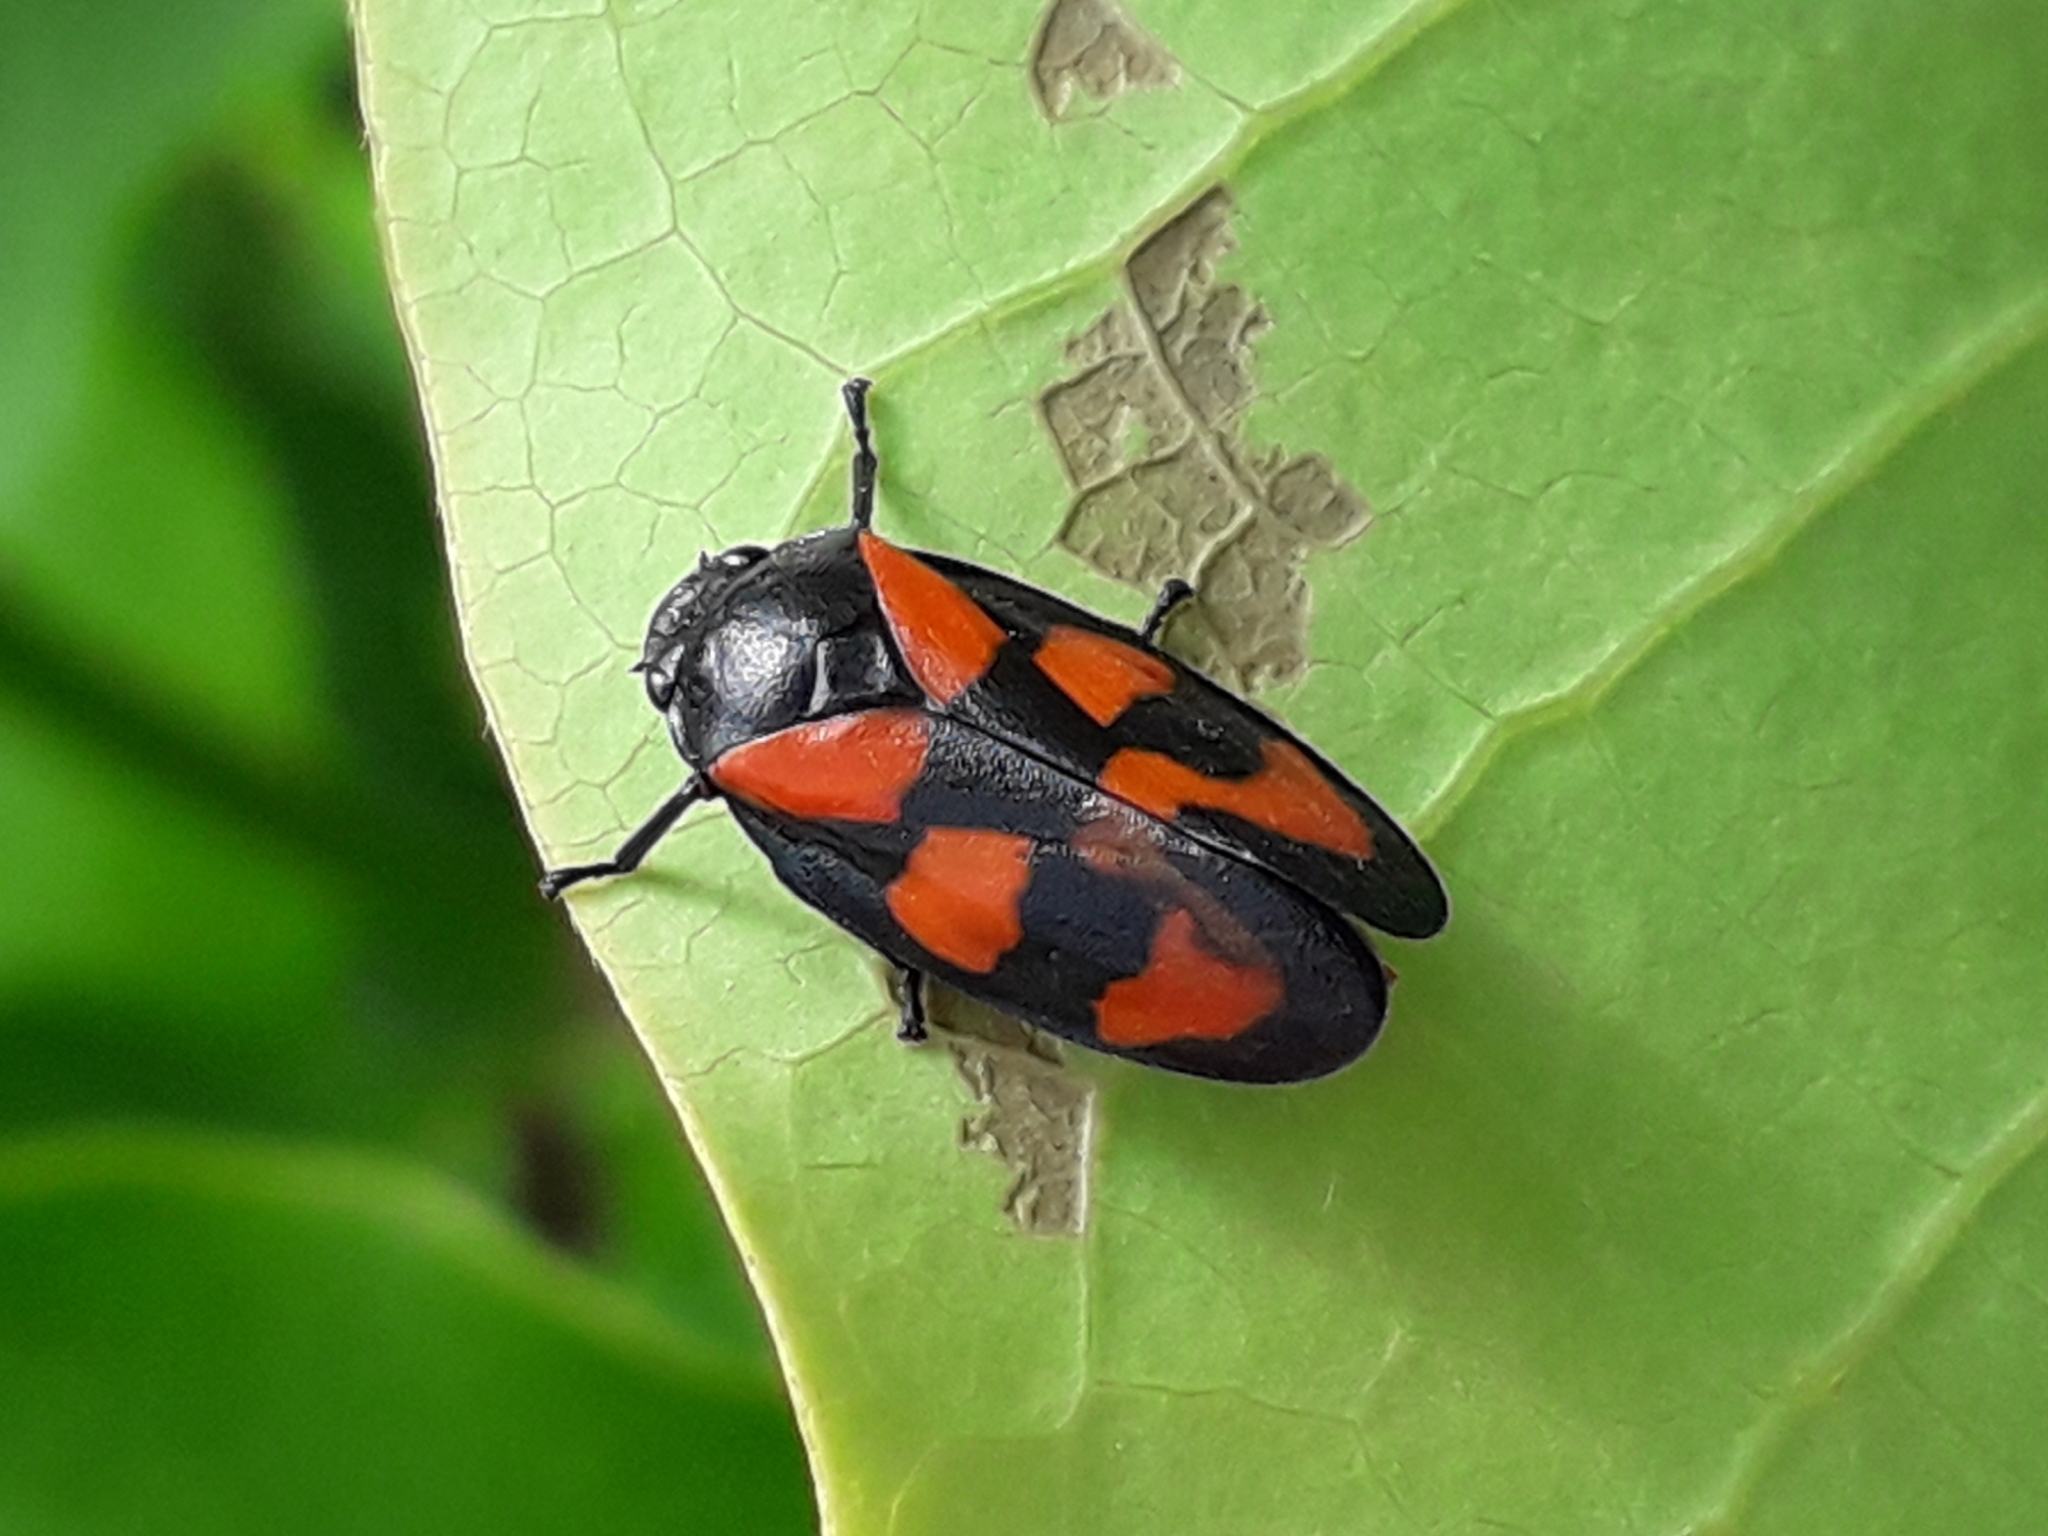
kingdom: Animalia
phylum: Arthropoda
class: Insecta
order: Hemiptera
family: Cercopidae
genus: Cercopis
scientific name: Cercopis vulnerata
